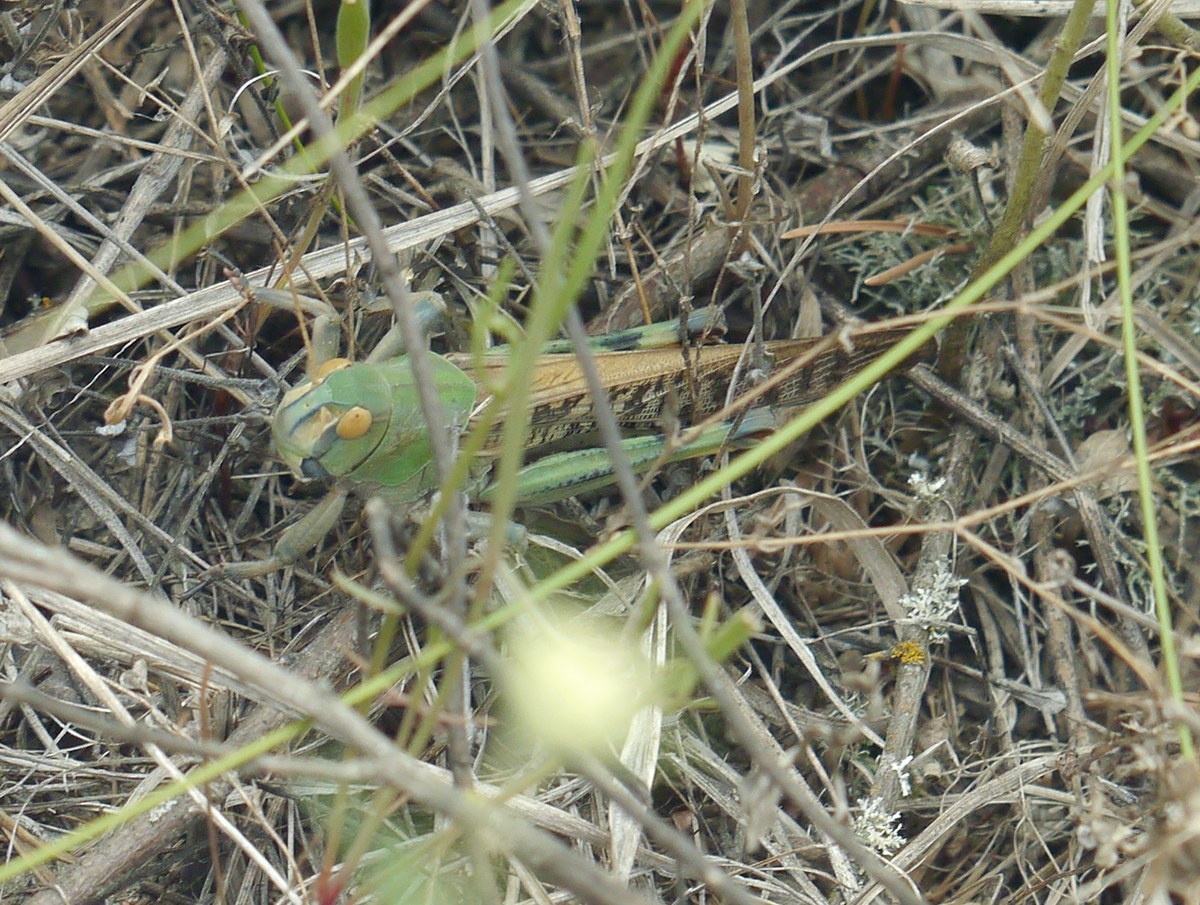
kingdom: Animalia
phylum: Arthropoda
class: Insecta
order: Orthoptera
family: Acrididae
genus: Locusta
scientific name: Locusta migratoria
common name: Migratory locust
